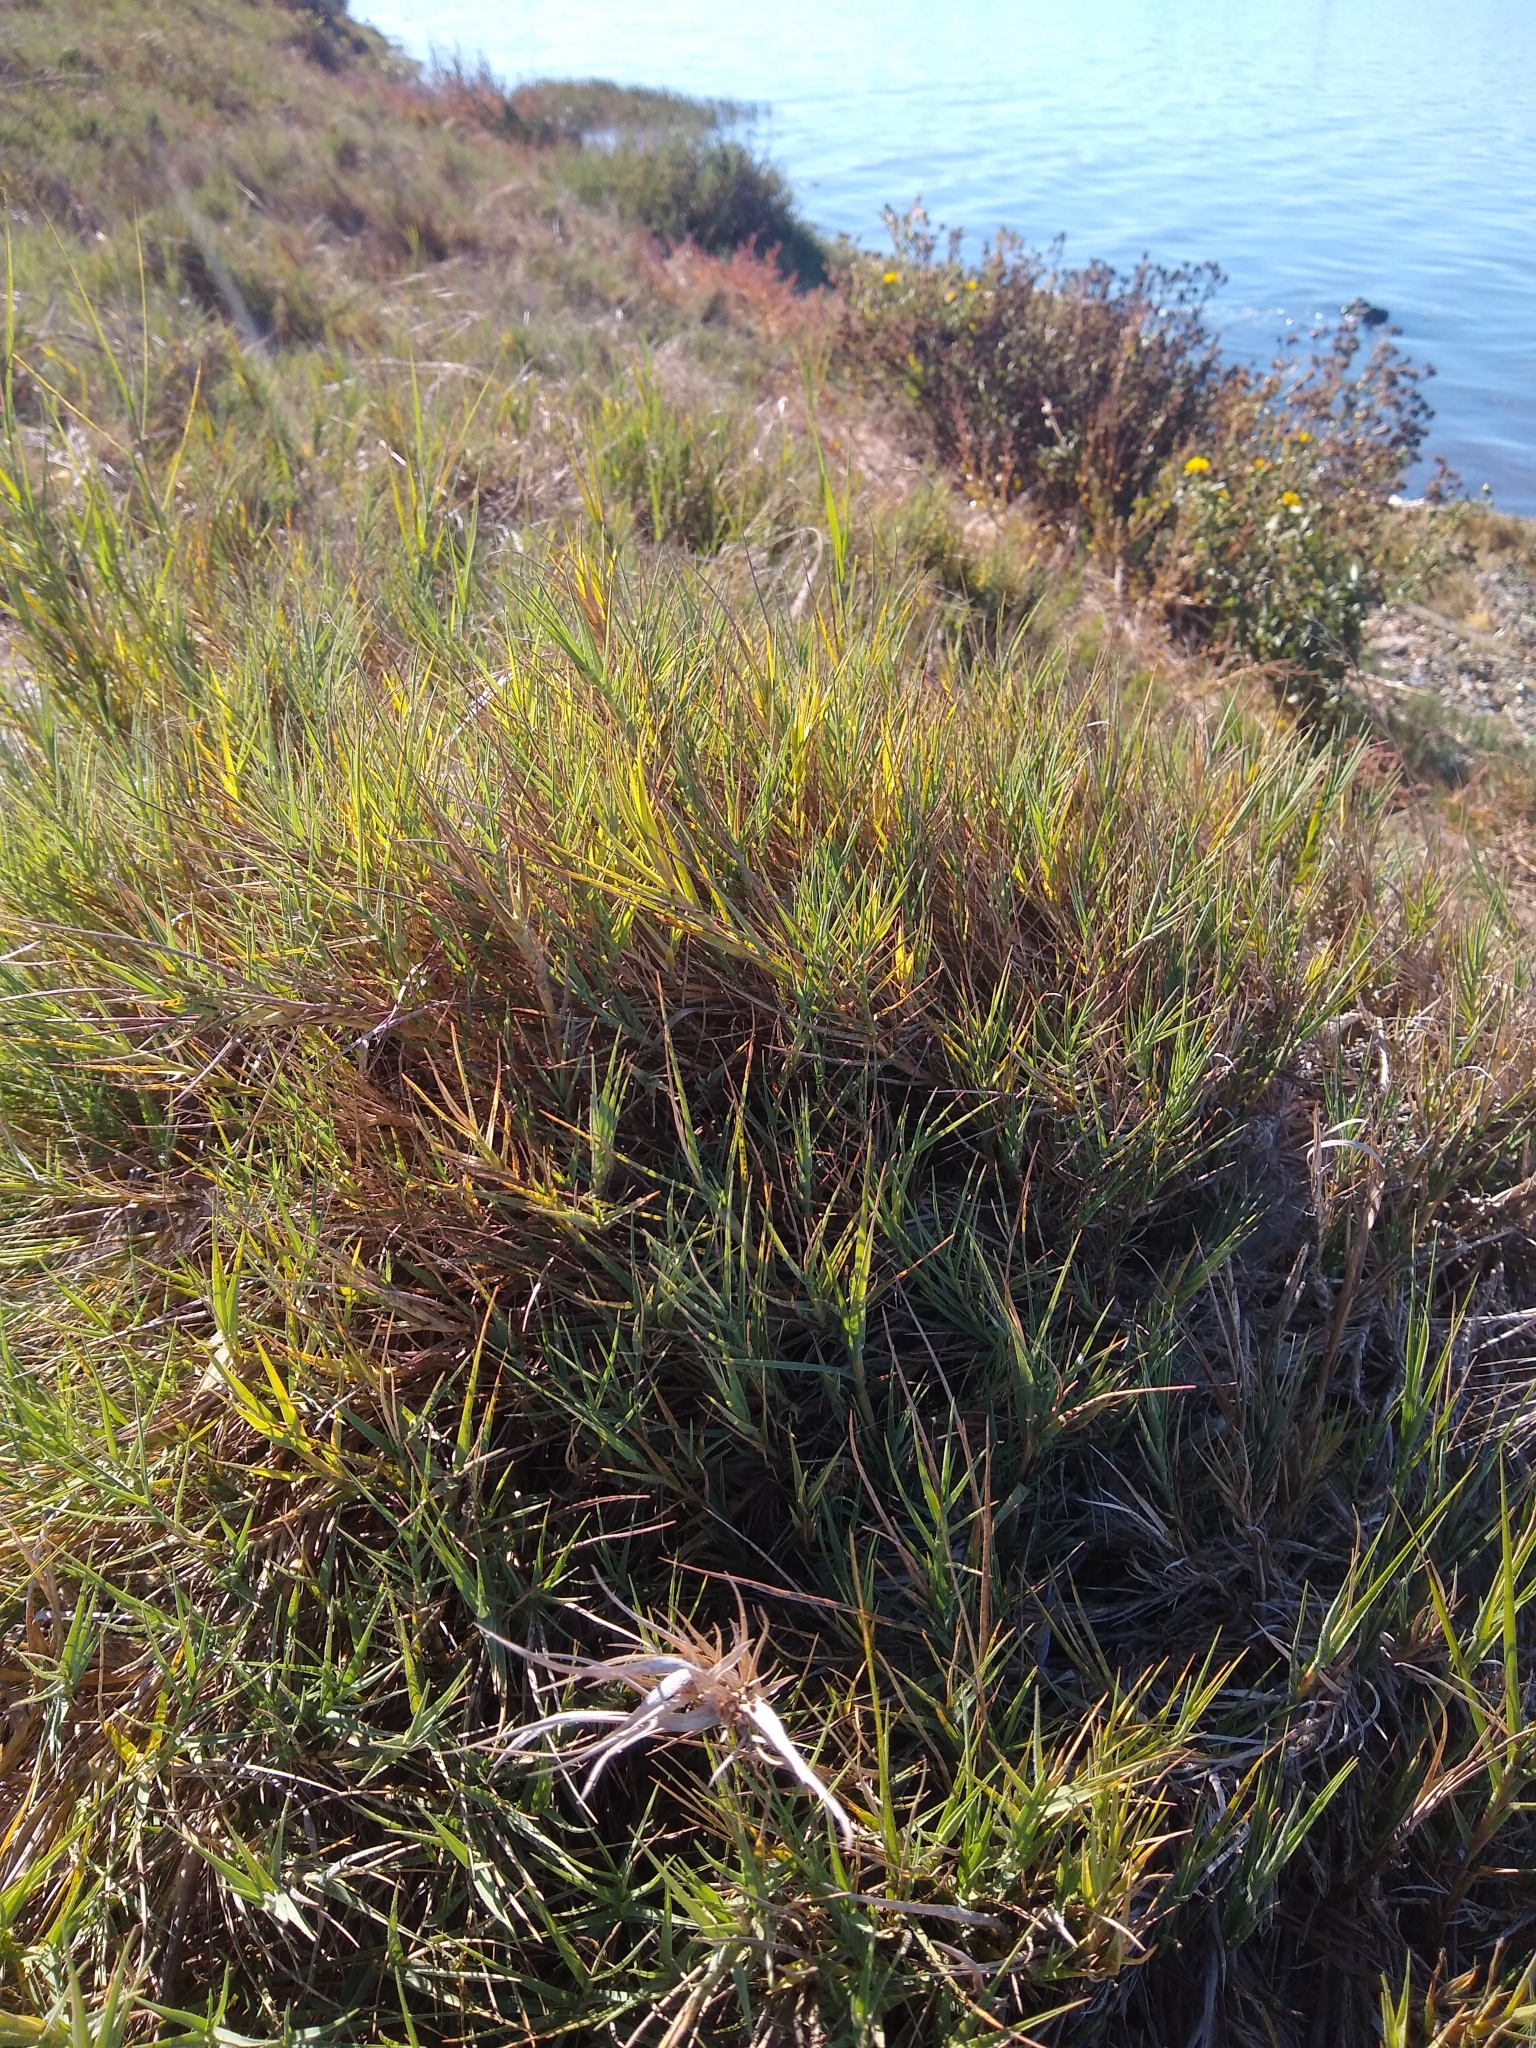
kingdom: Plantae
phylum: Tracheophyta
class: Liliopsida
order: Poales
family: Poaceae
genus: Distichlis
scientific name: Distichlis spicata
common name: Saltgrass
